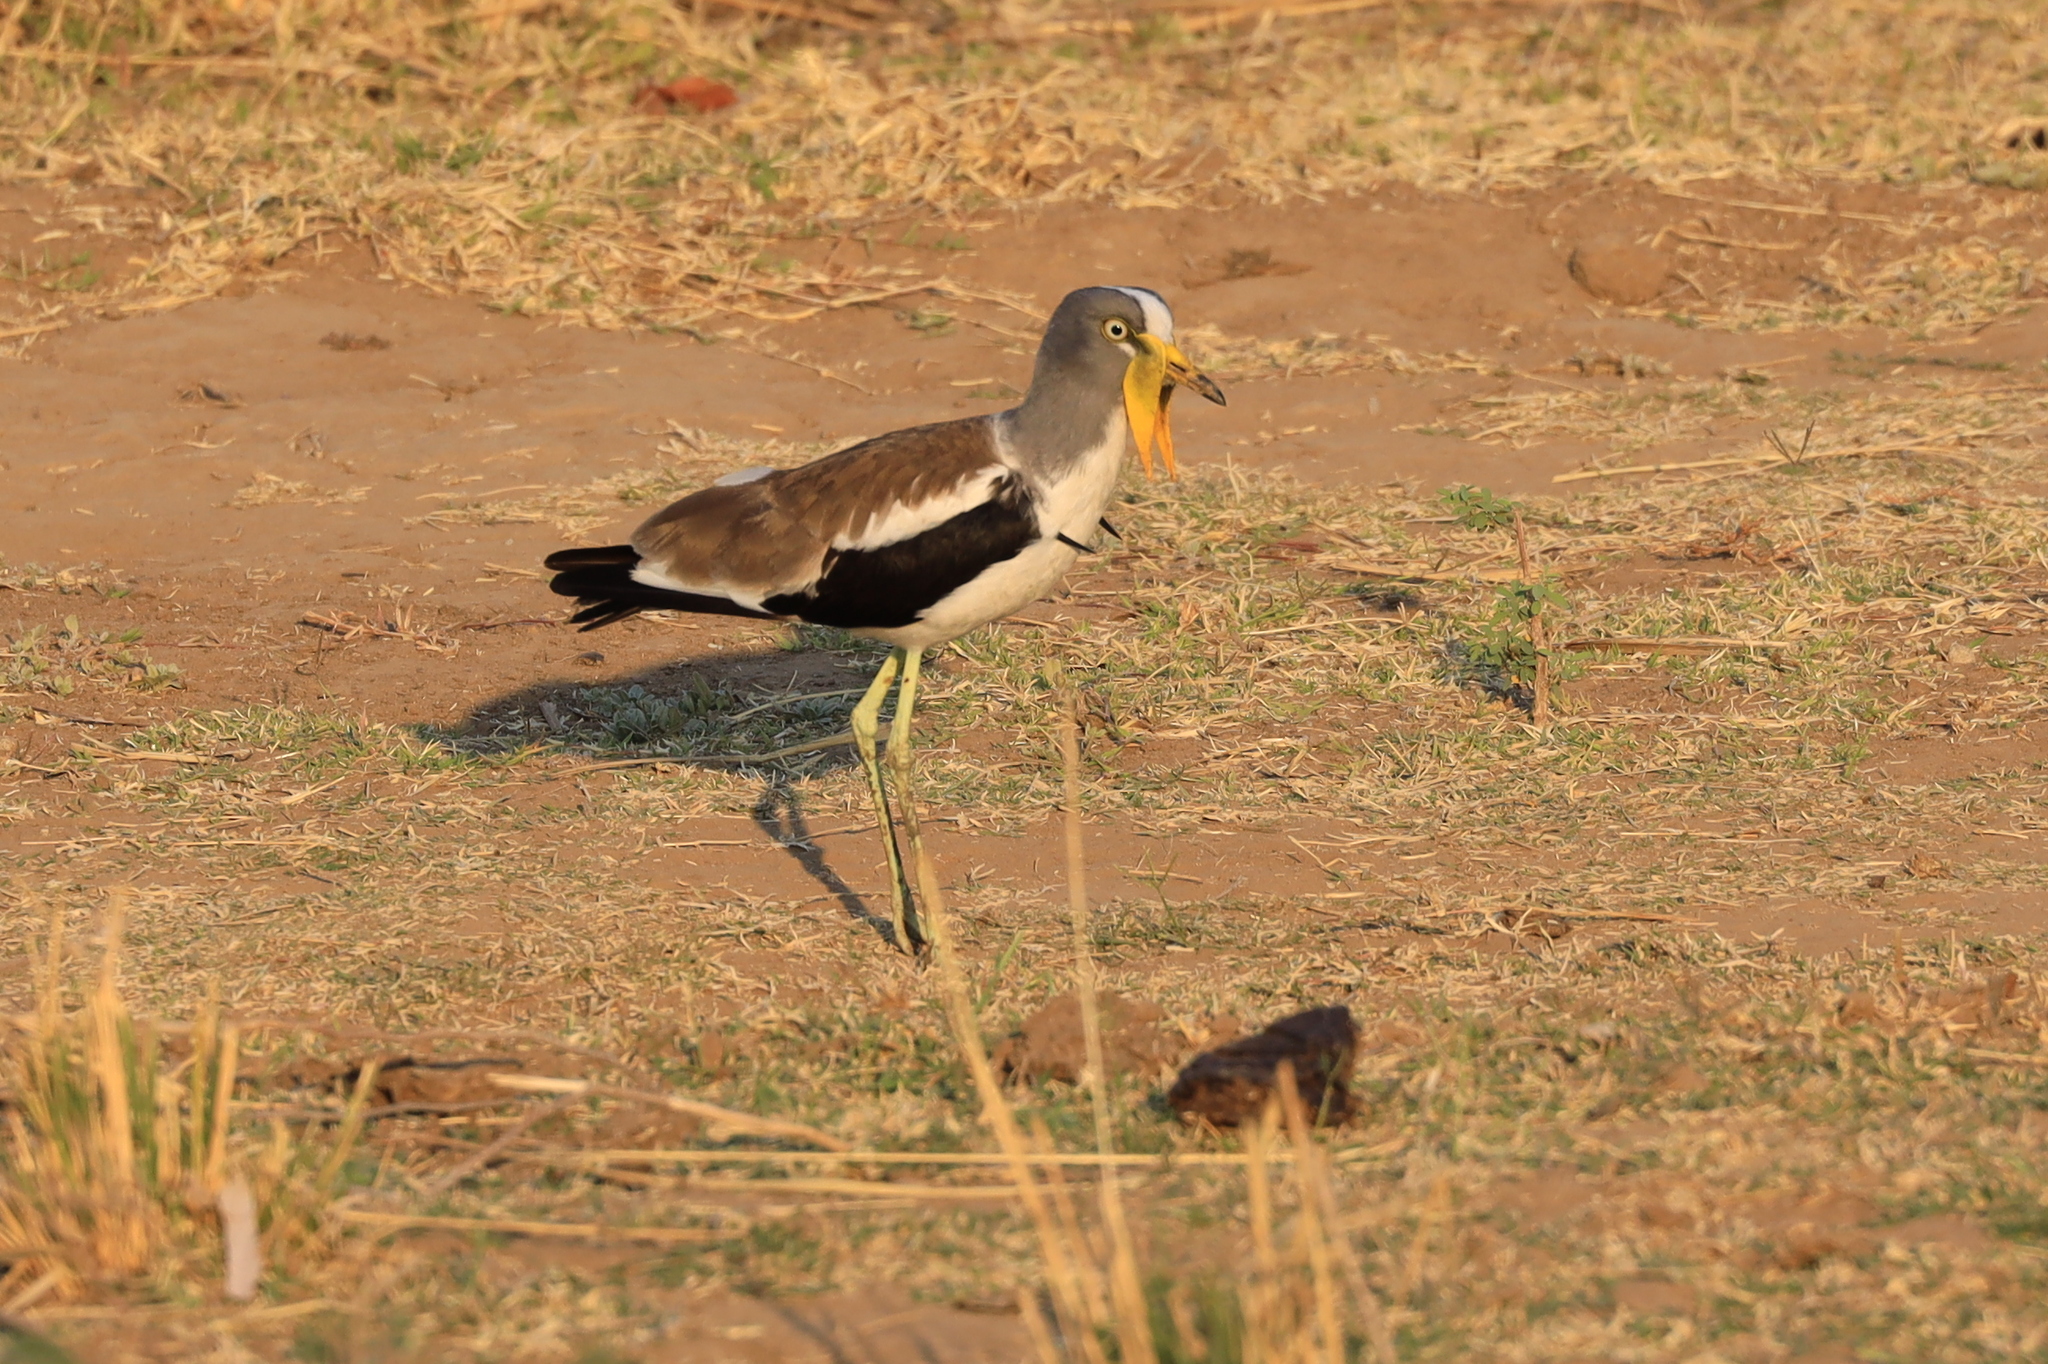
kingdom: Animalia
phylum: Chordata
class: Aves
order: Charadriiformes
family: Charadriidae
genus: Vanellus
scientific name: Vanellus albiceps
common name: White-crowned lapwing
